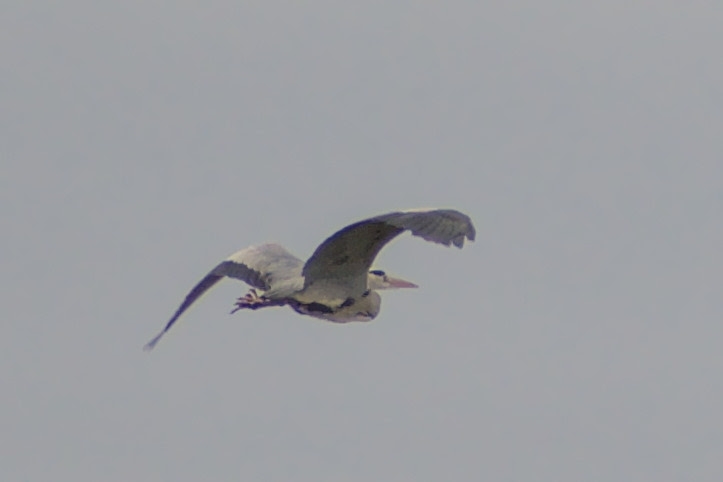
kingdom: Animalia
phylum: Chordata
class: Aves
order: Pelecaniformes
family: Ardeidae
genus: Ardea
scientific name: Ardea cinerea
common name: Grey heron
